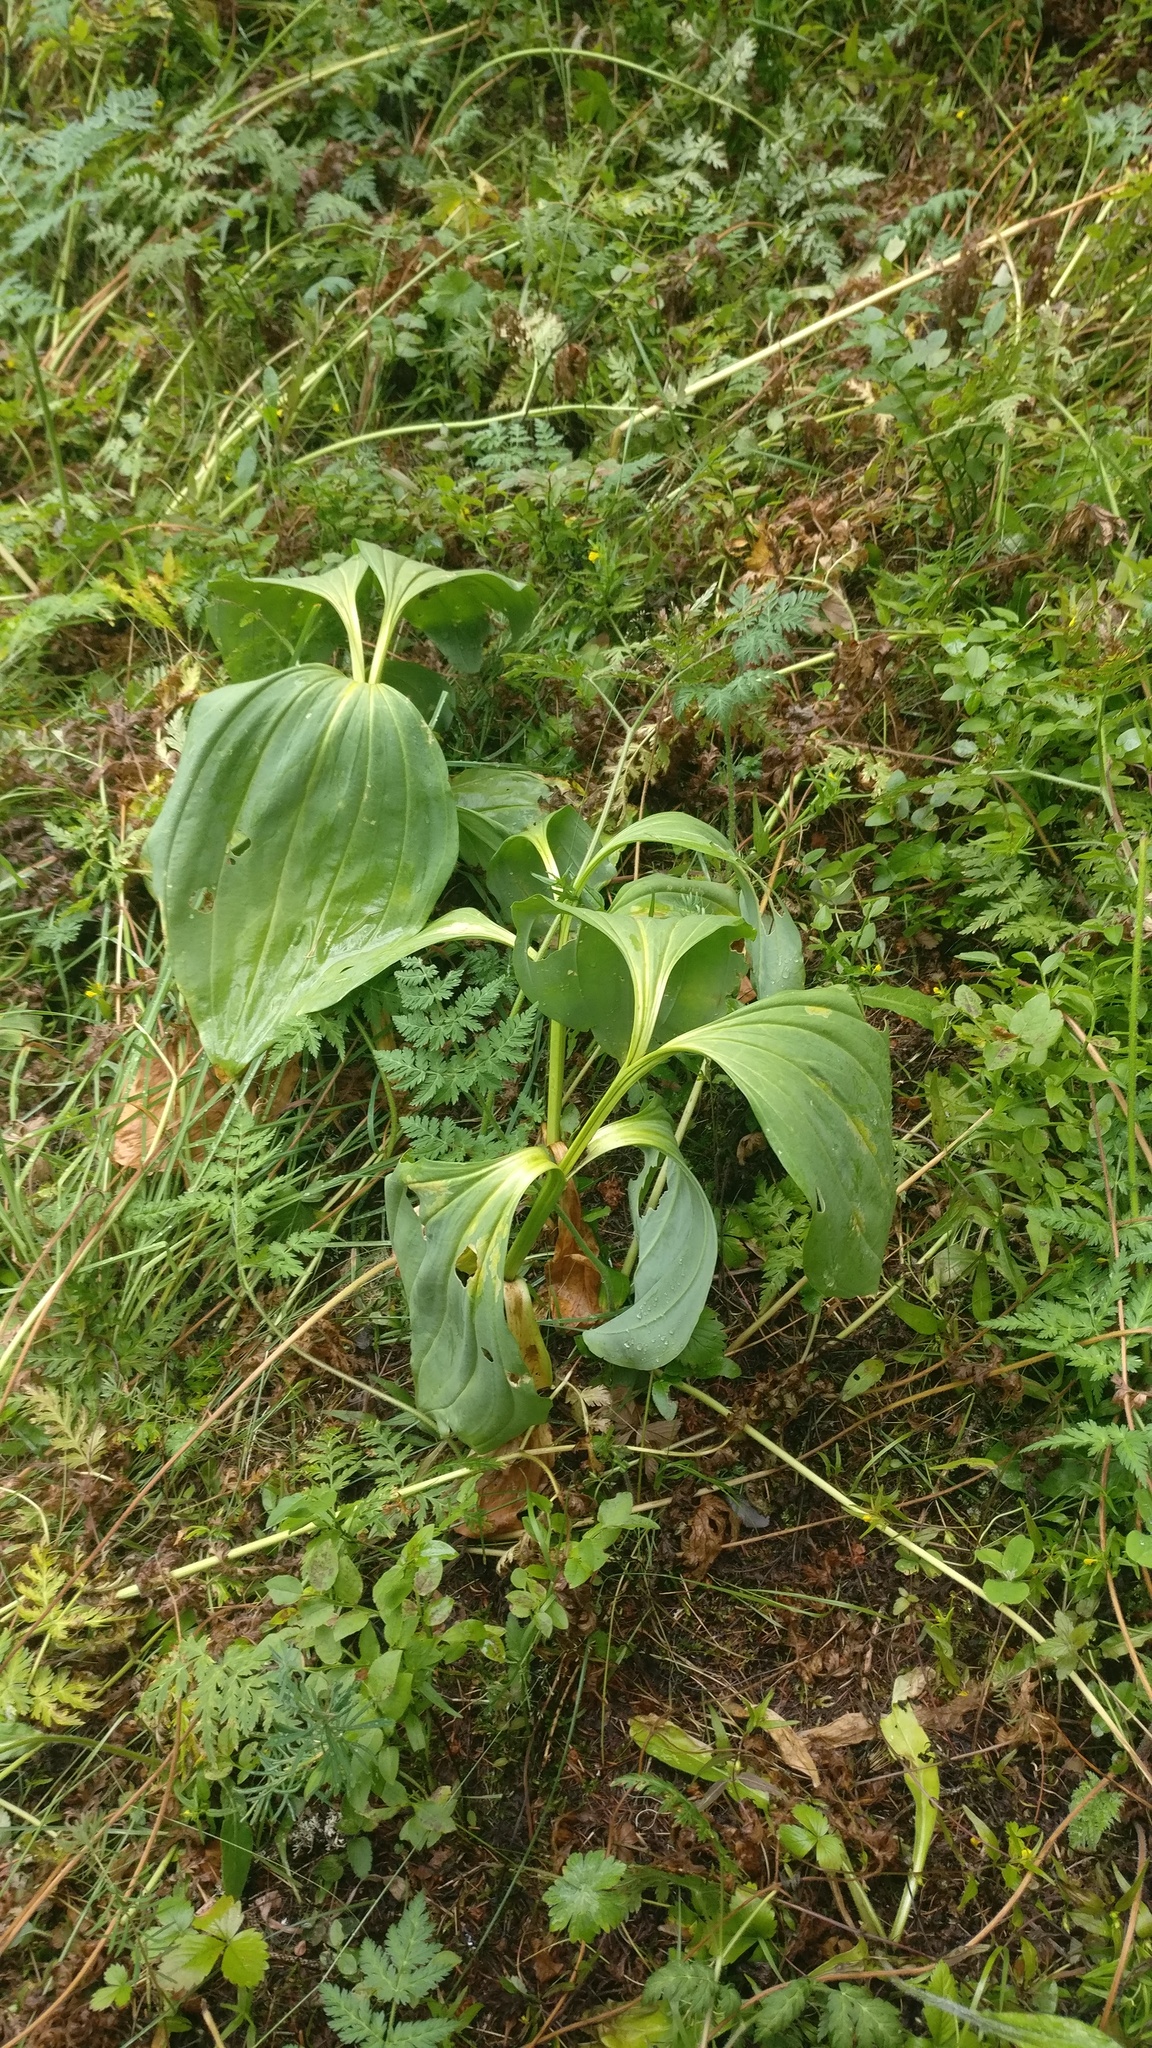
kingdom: Plantae
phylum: Tracheophyta
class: Magnoliopsida
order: Gentianales
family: Gentianaceae
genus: Gentiana
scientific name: Gentiana lutea
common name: Great yellow gentian
